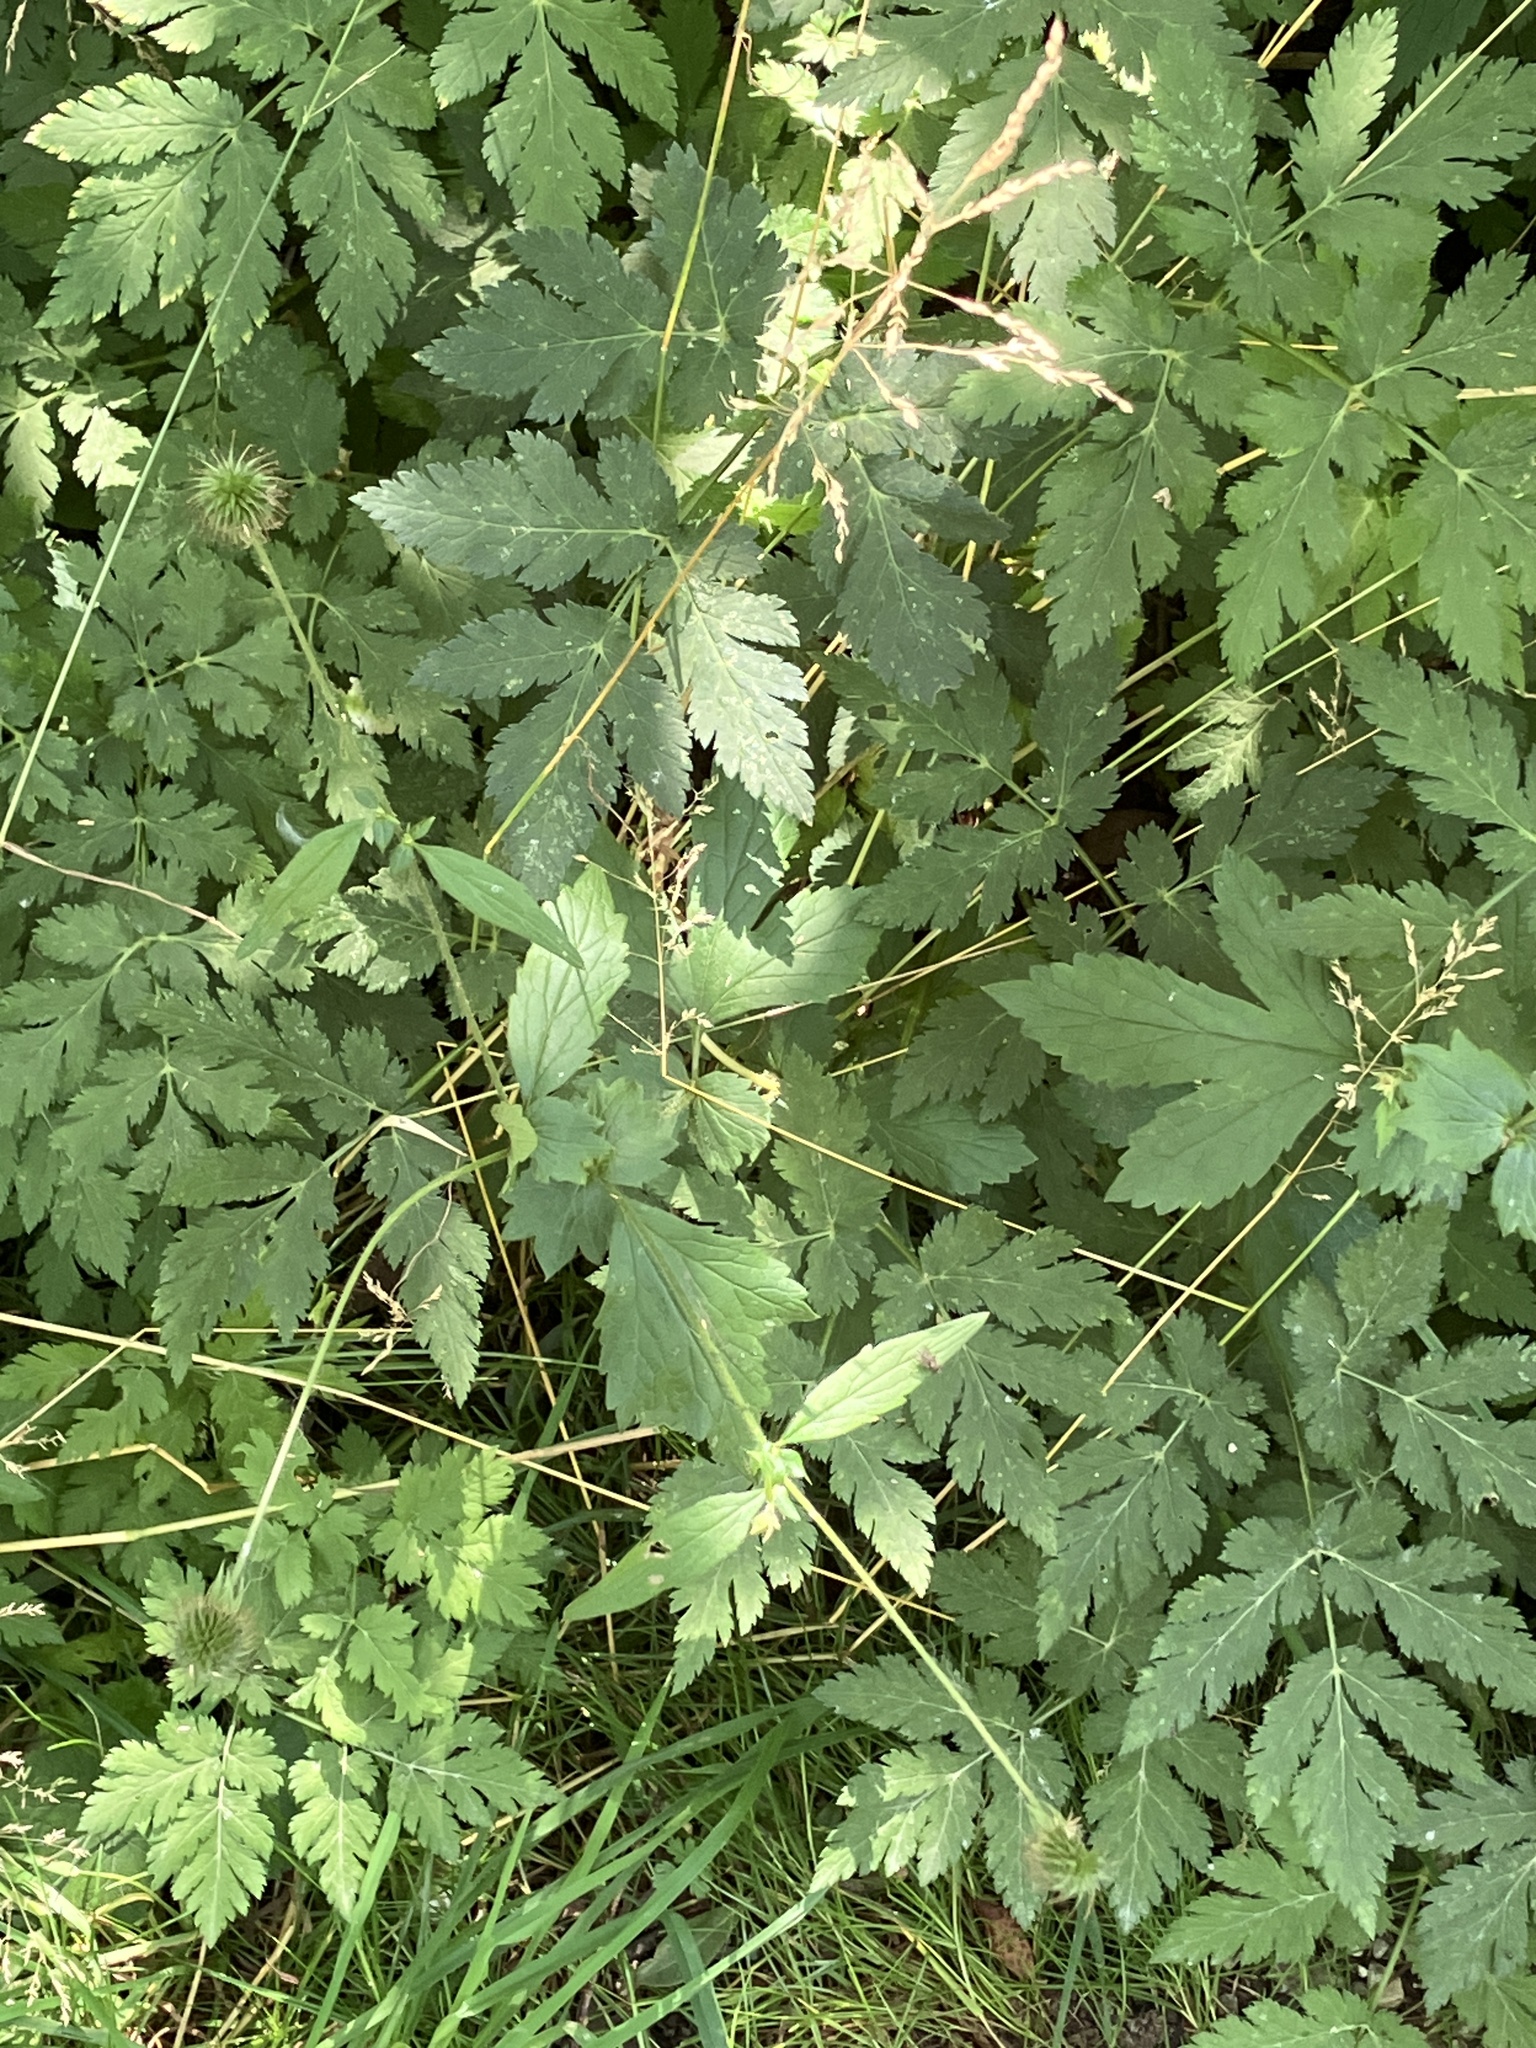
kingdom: Plantae
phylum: Tracheophyta
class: Magnoliopsida
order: Rosales
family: Rosaceae
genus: Geum
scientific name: Geum urbanum
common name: Wood avens
